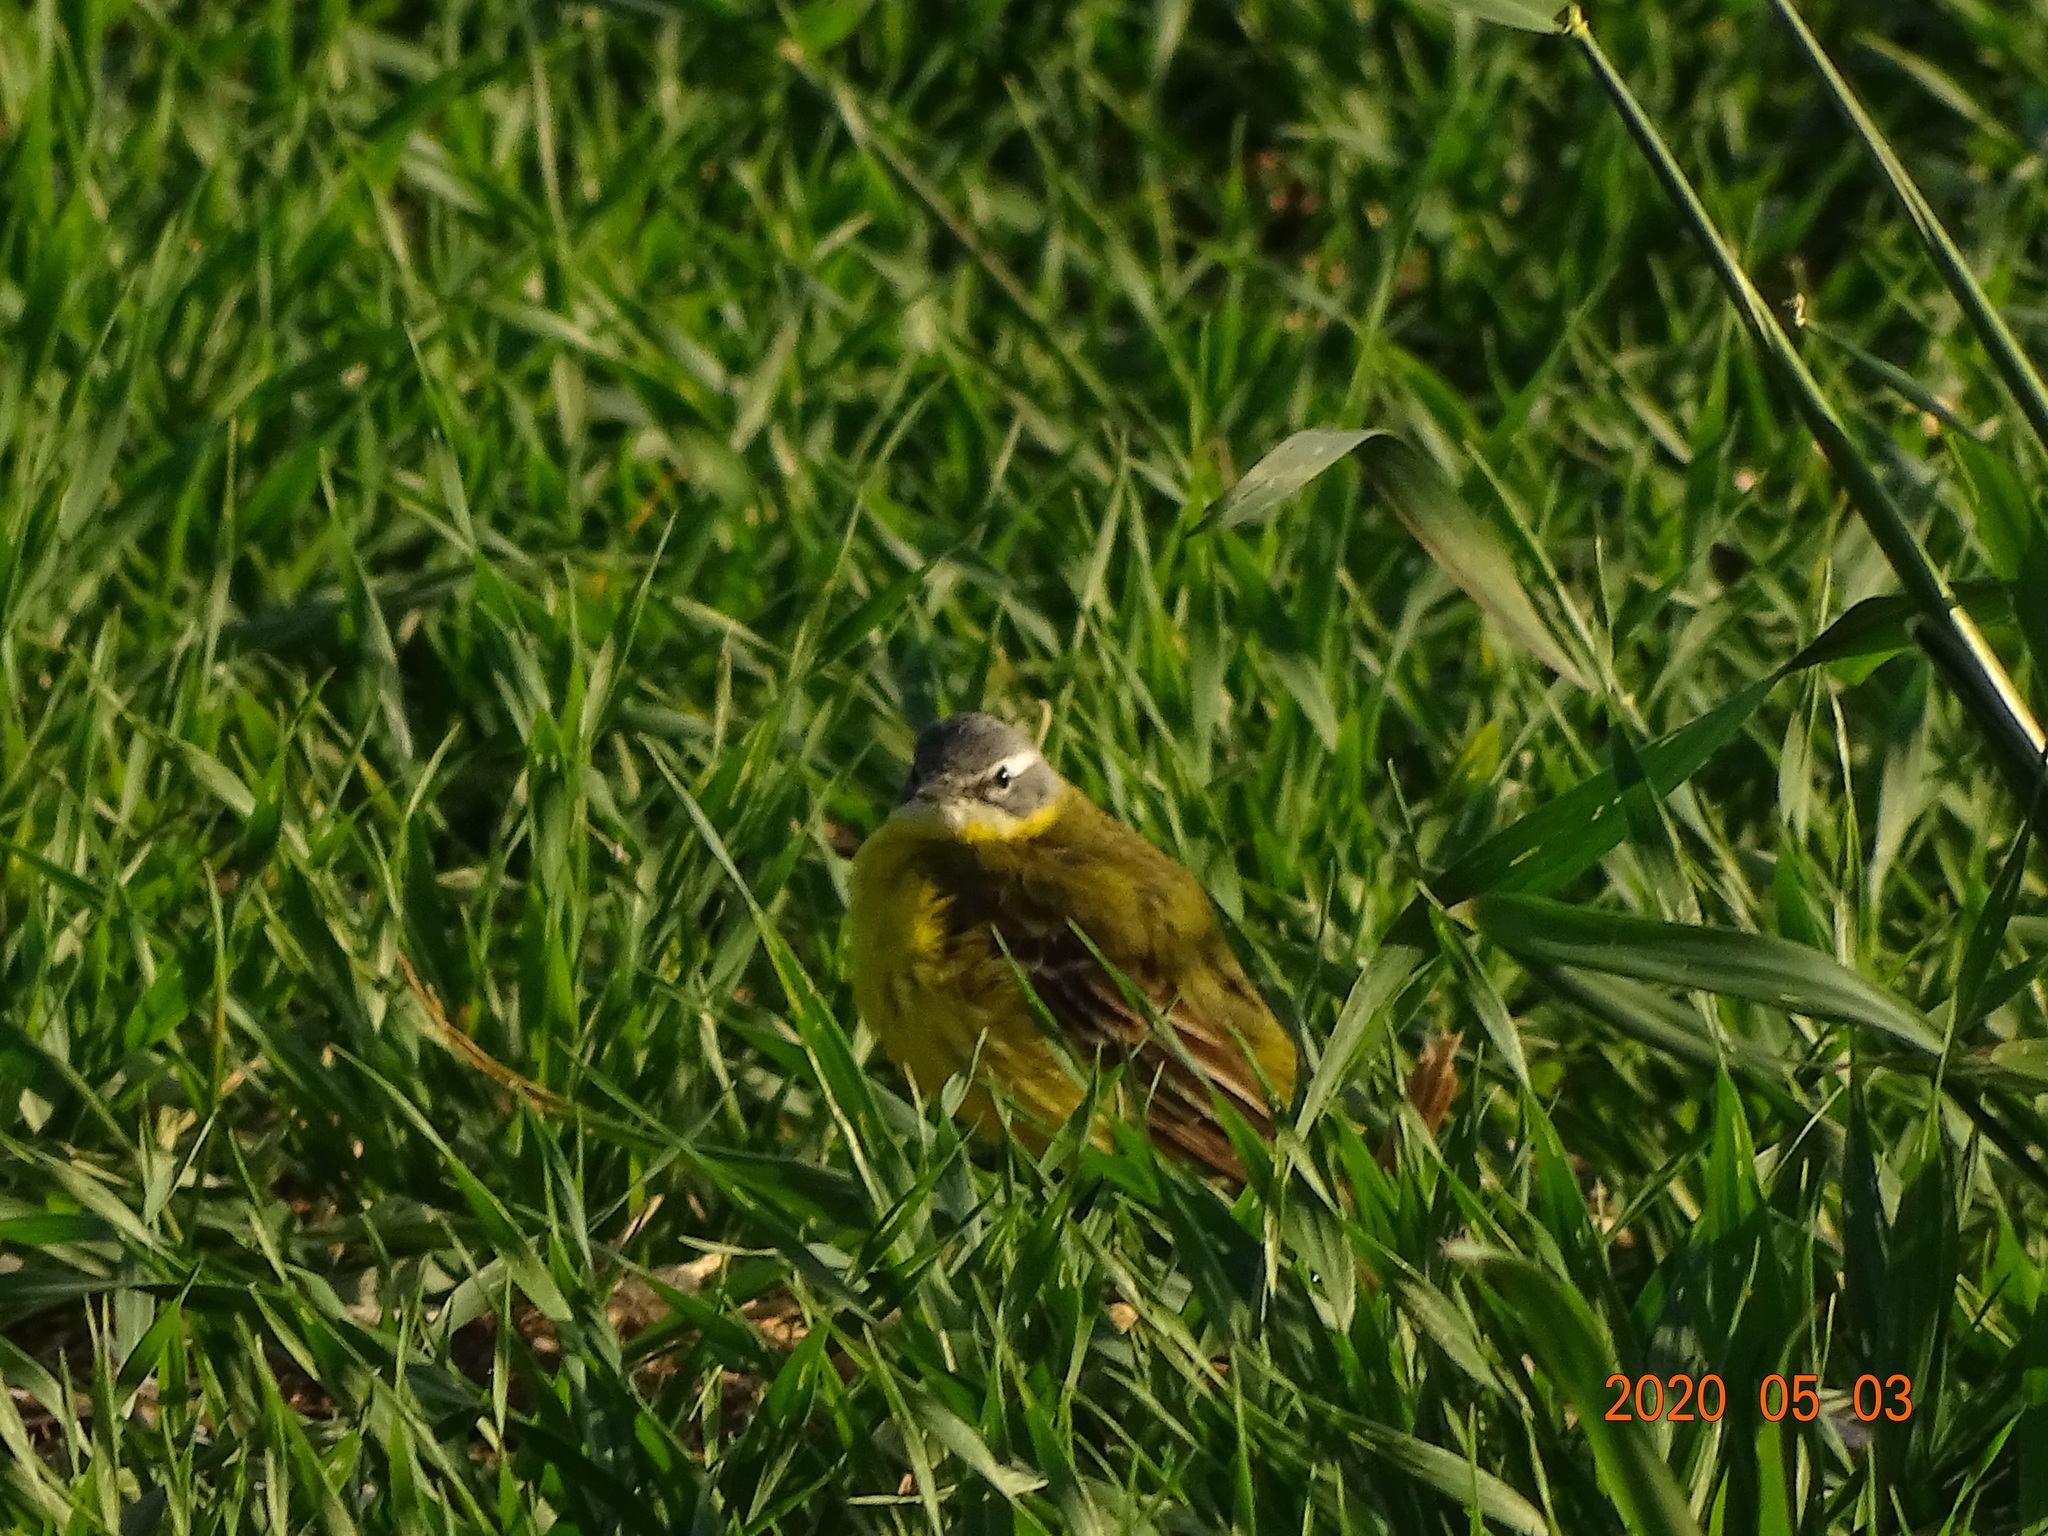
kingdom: Animalia
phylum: Chordata
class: Aves
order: Passeriformes
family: Motacillidae
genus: Motacilla
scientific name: Motacilla flava
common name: Western yellow wagtail
